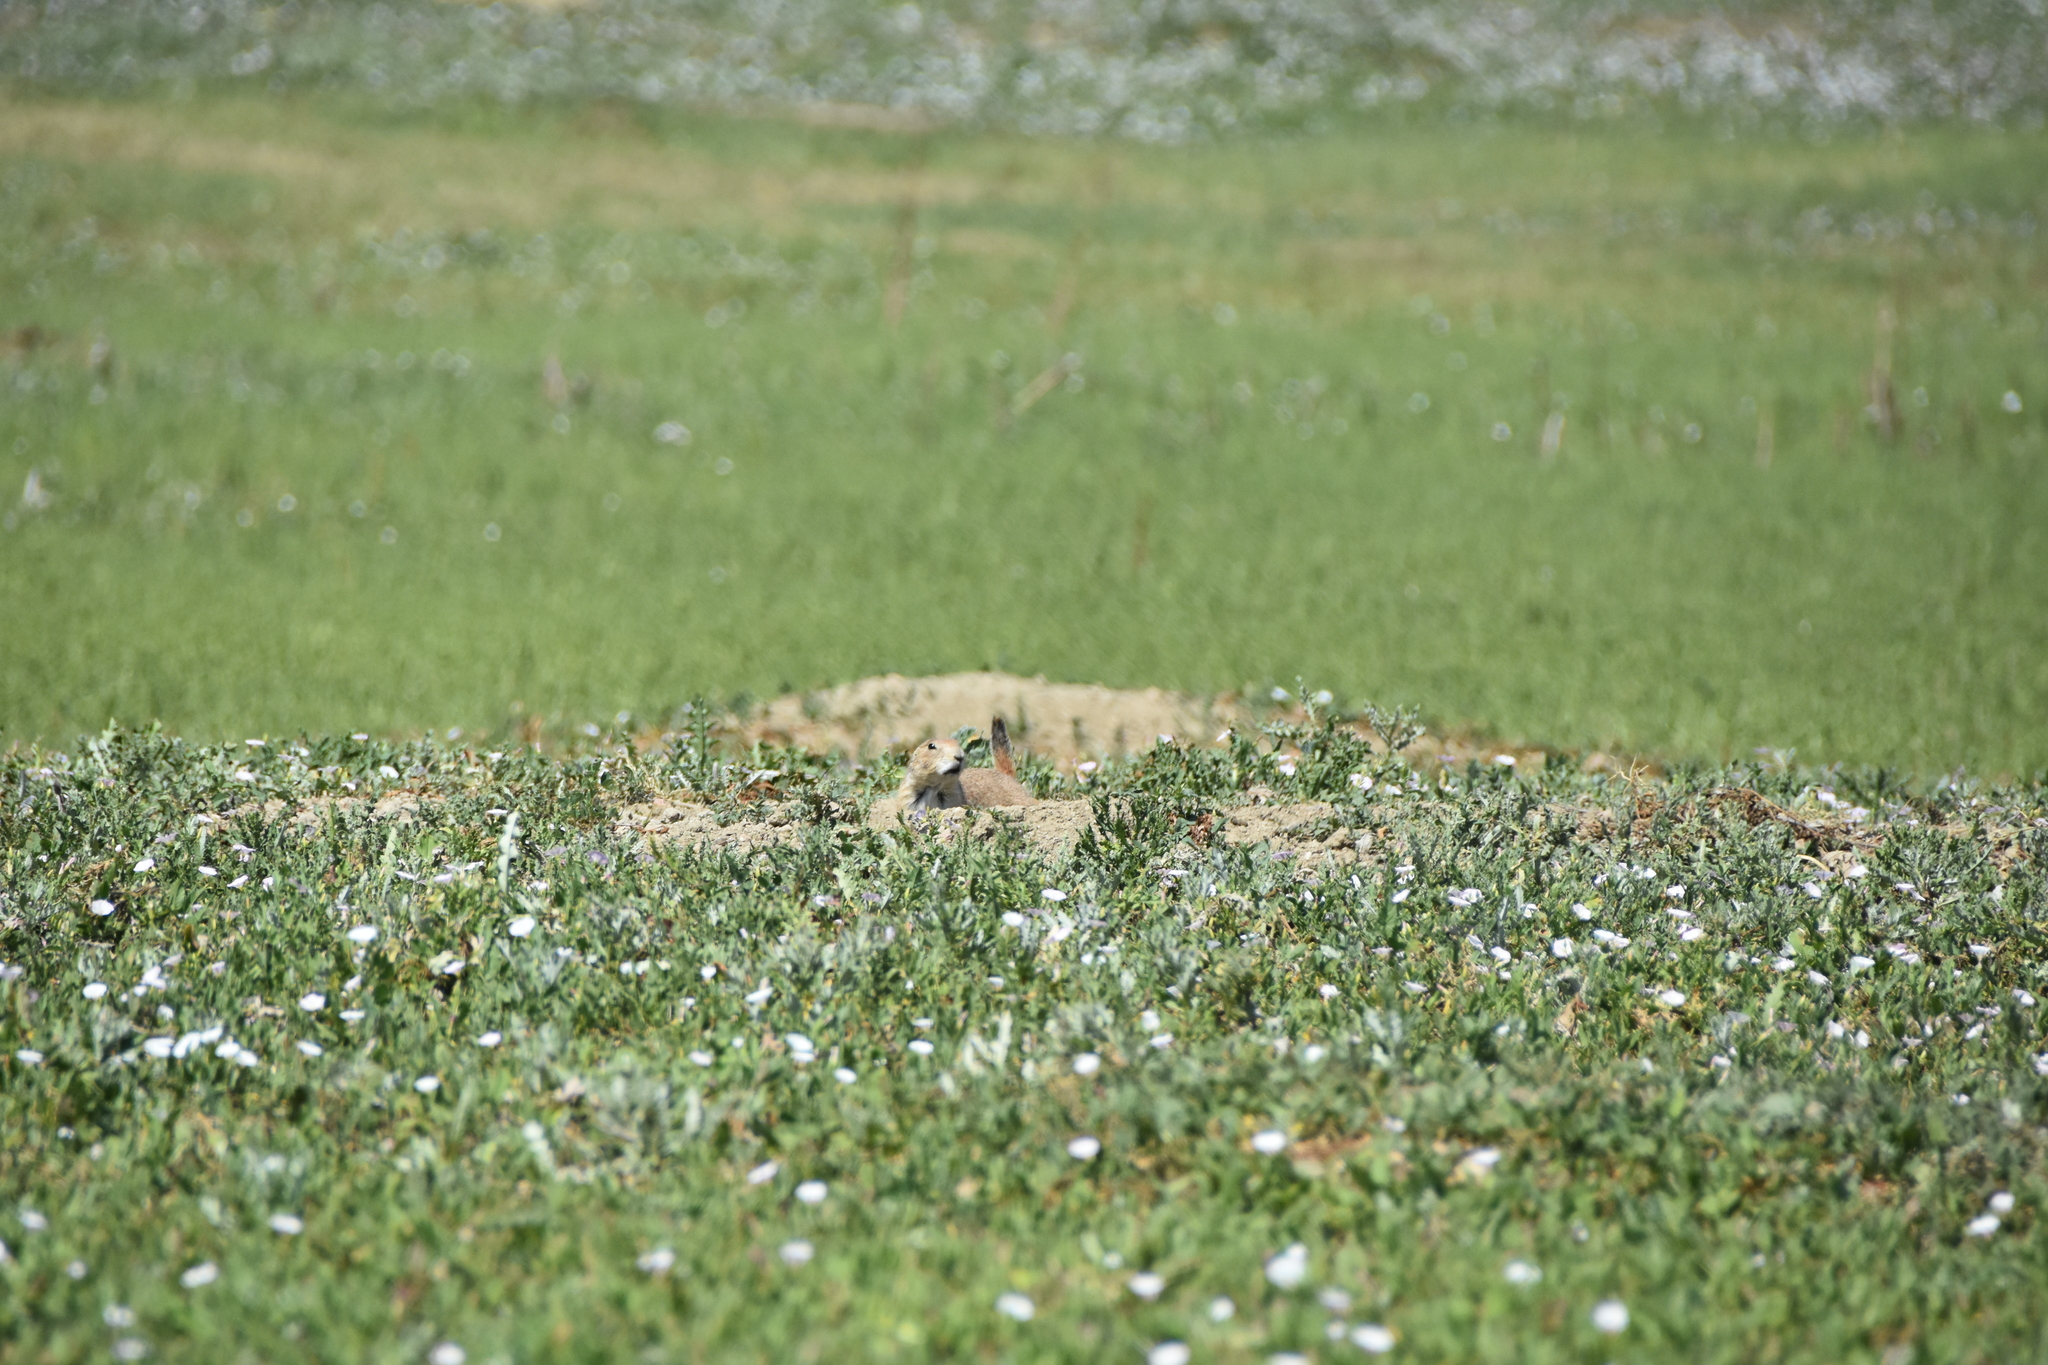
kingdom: Animalia
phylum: Chordata
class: Mammalia
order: Rodentia
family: Sciuridae
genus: Cynomys
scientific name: Cynomys ludovicianus
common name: Black-tailed prairie dog
